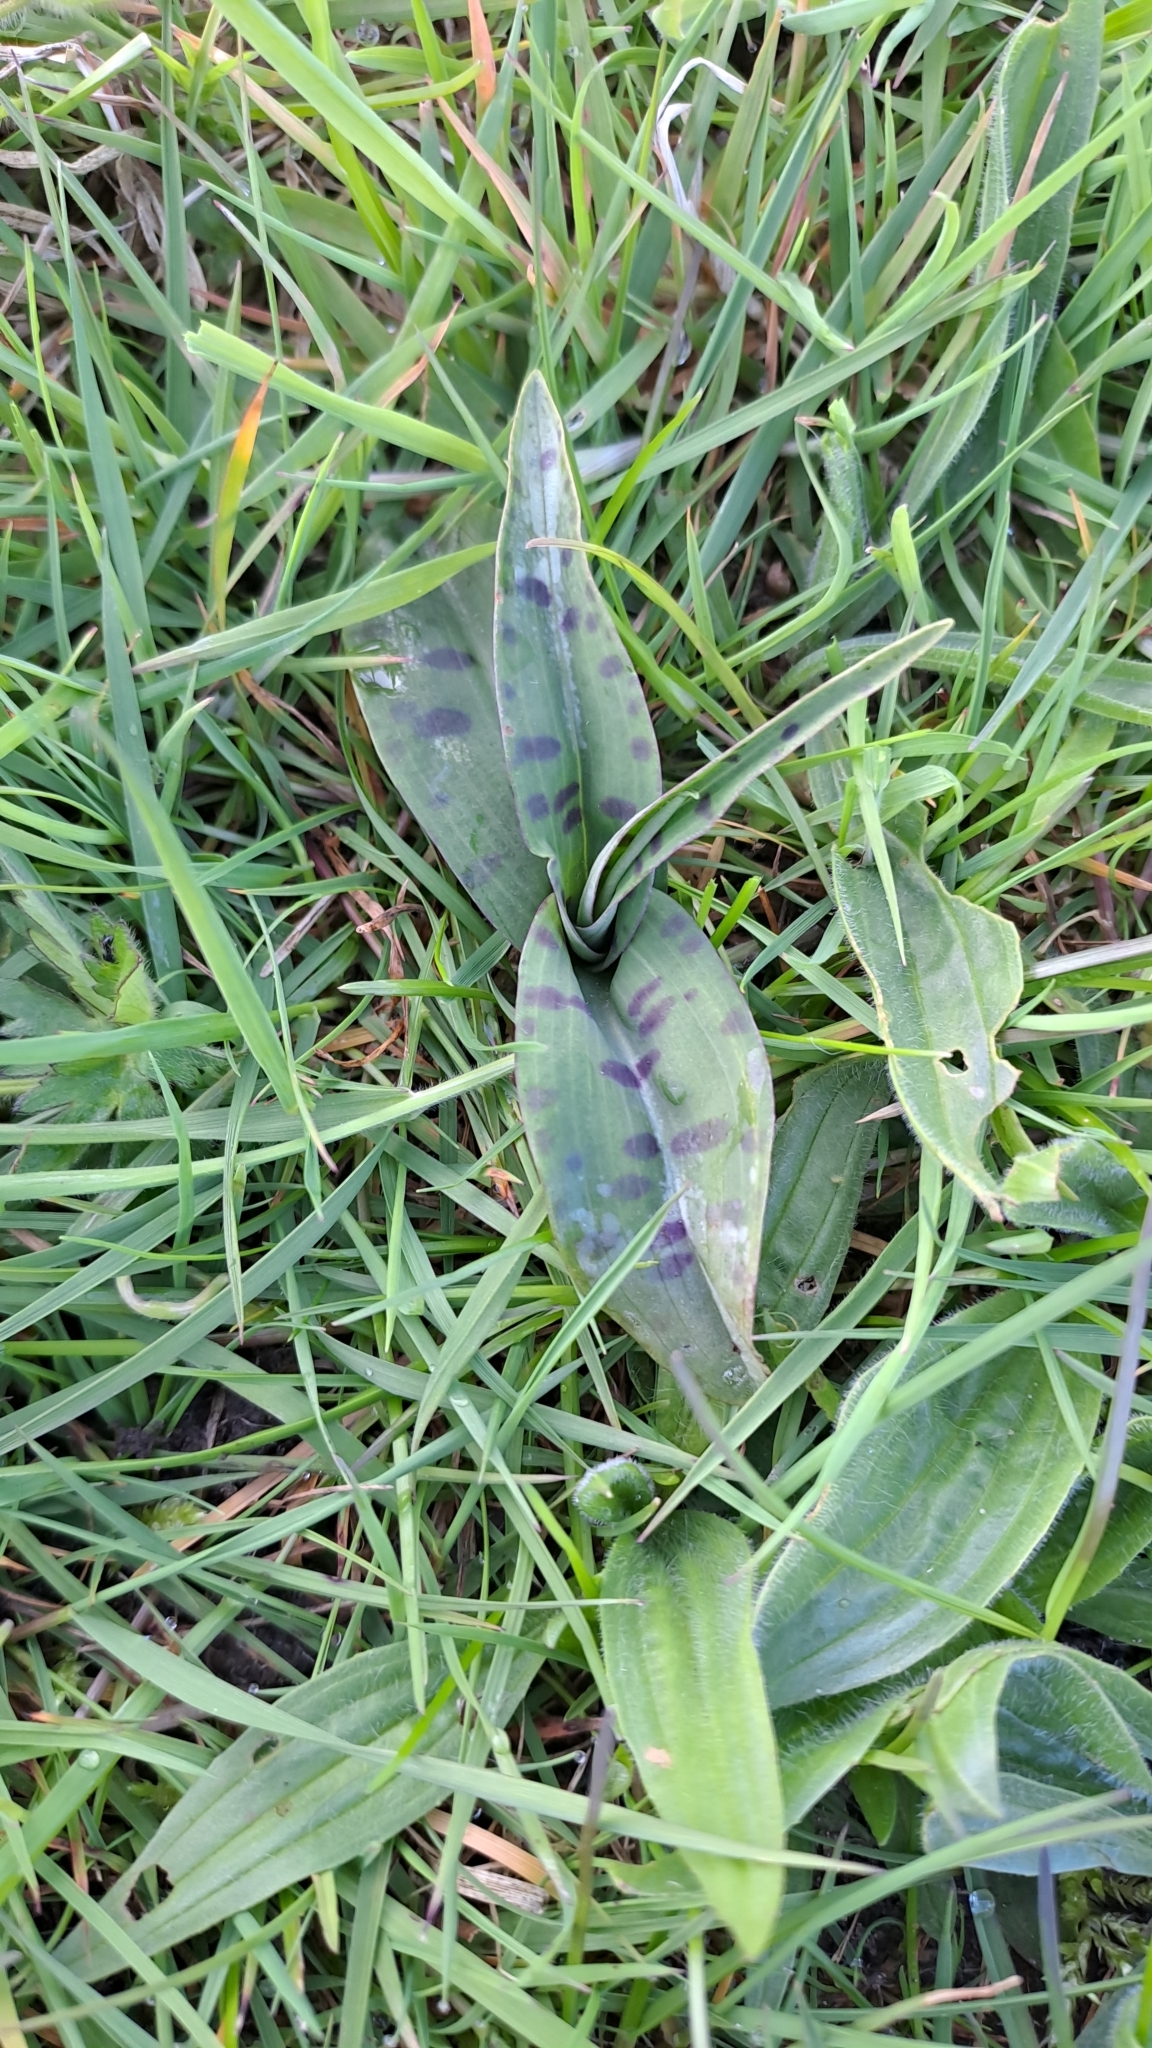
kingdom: Plantae
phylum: Tracheophyta
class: Liliopsida
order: Asparagales
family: Orchidaceae
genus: Dactylorhiza
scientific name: Dactylorhiza maculata
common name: Heath spotted-orchid
